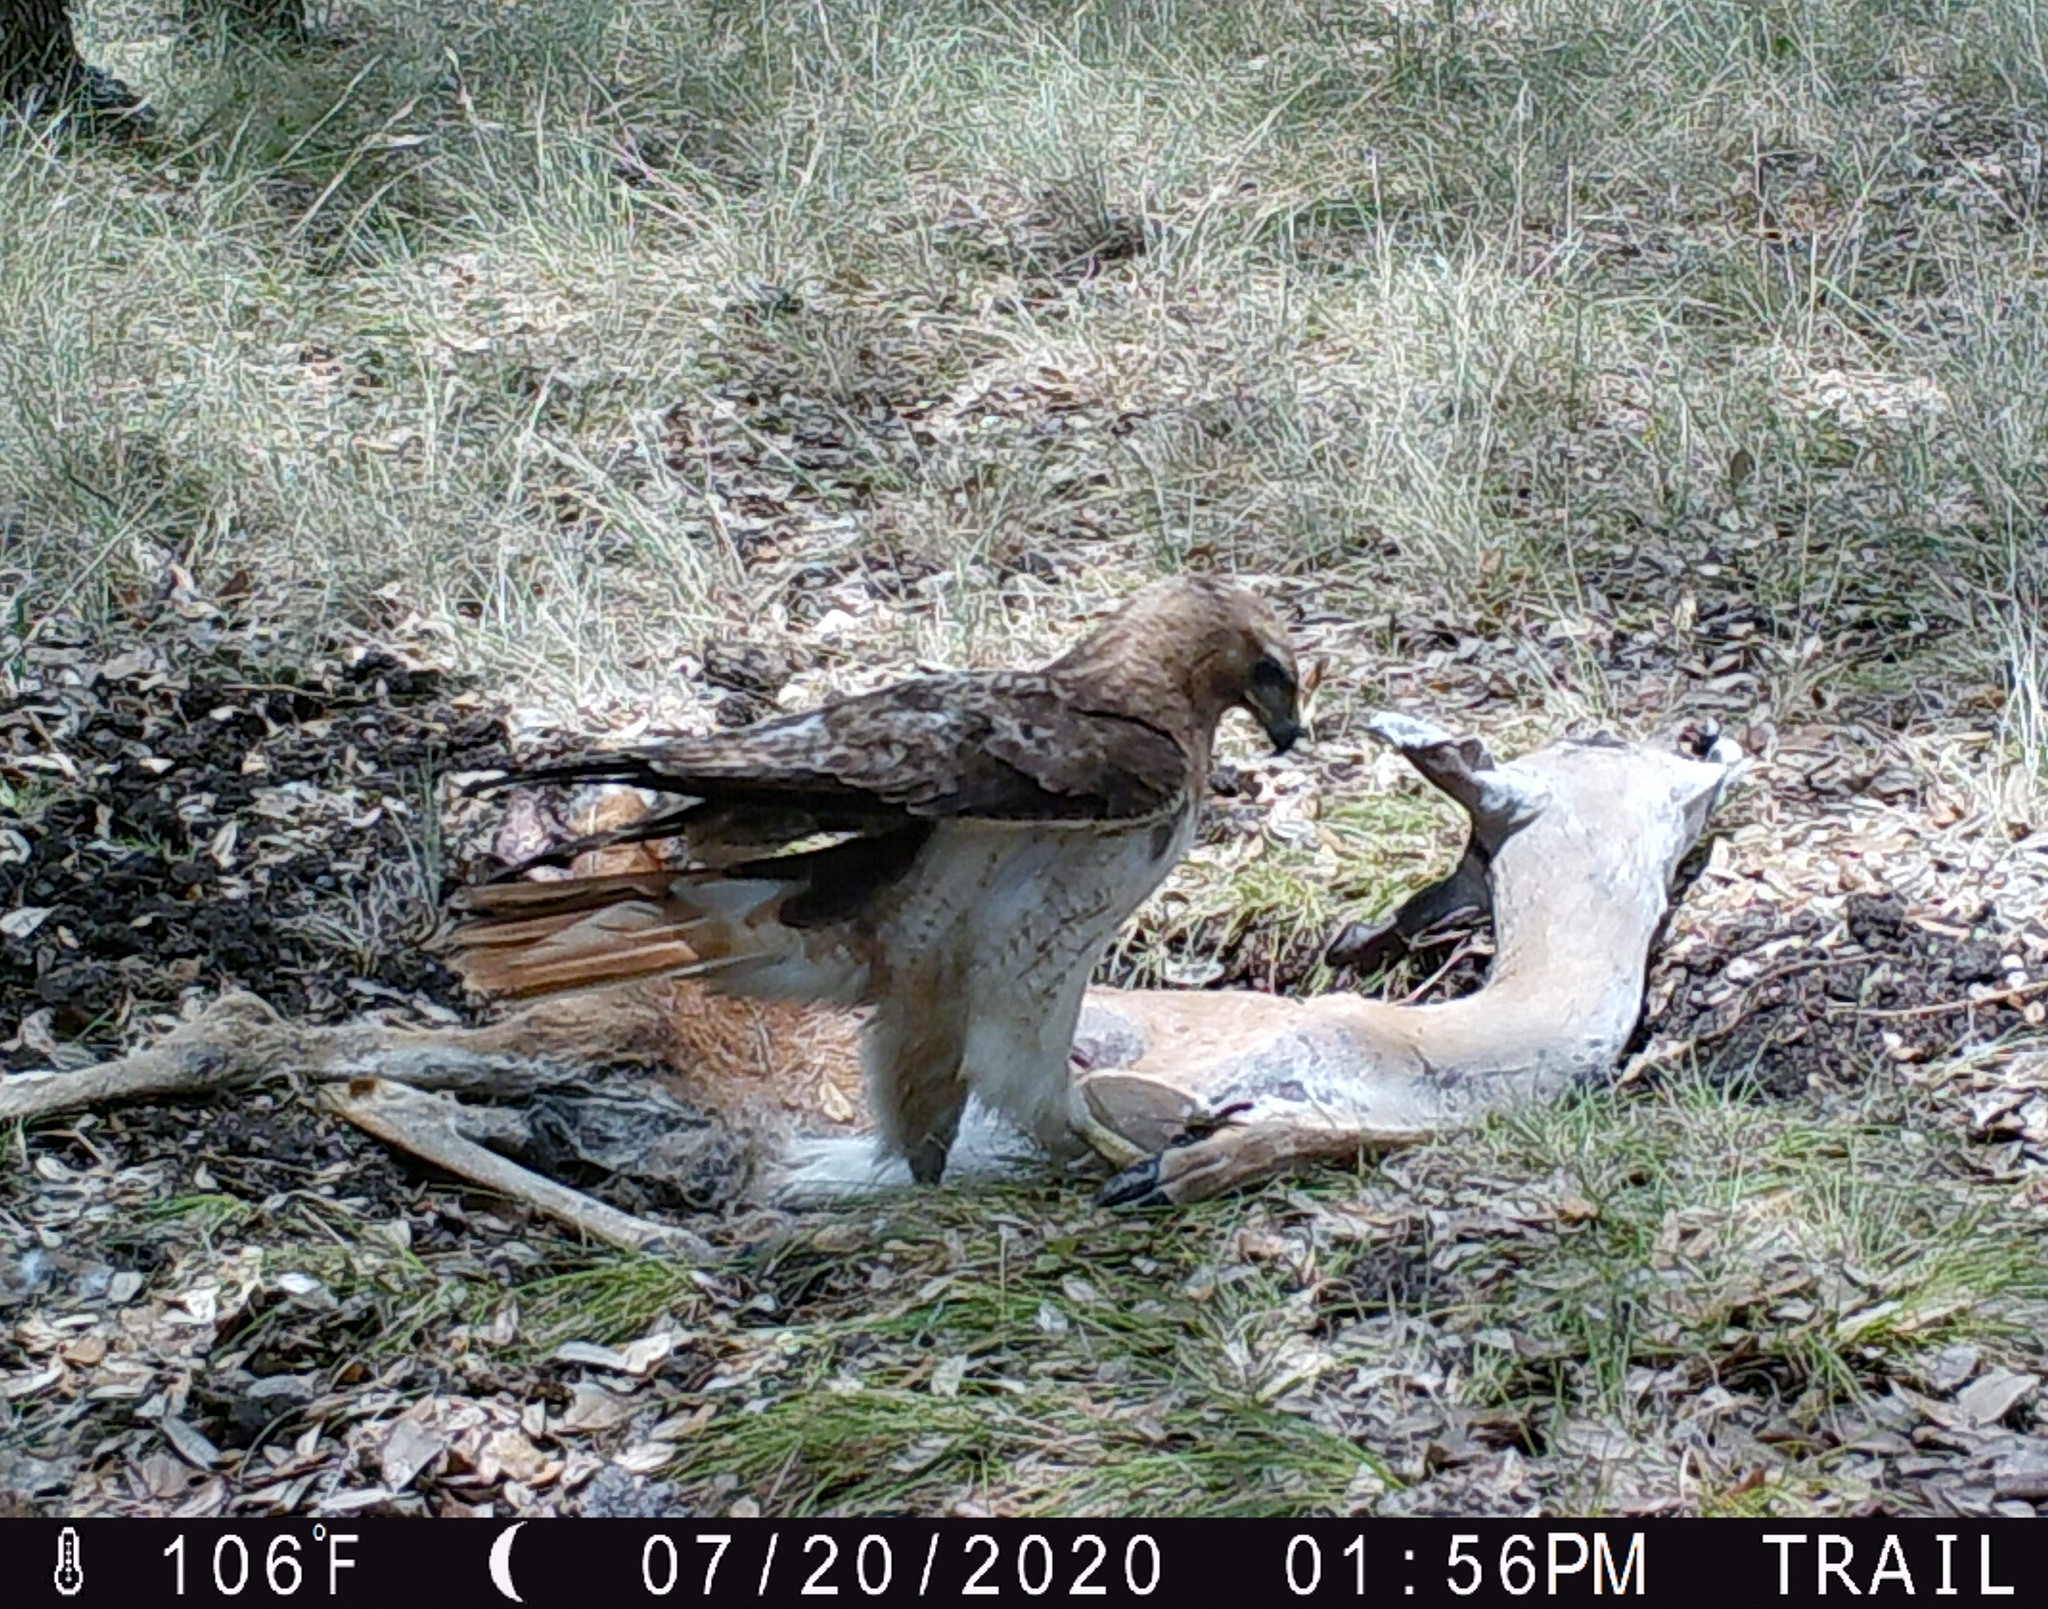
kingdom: Animalia
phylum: Chordata
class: Aves
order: Accipitriformes
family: Accipitridae
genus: Buteo
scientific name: Buteo jamaicensis
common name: Red-tailed hawk
